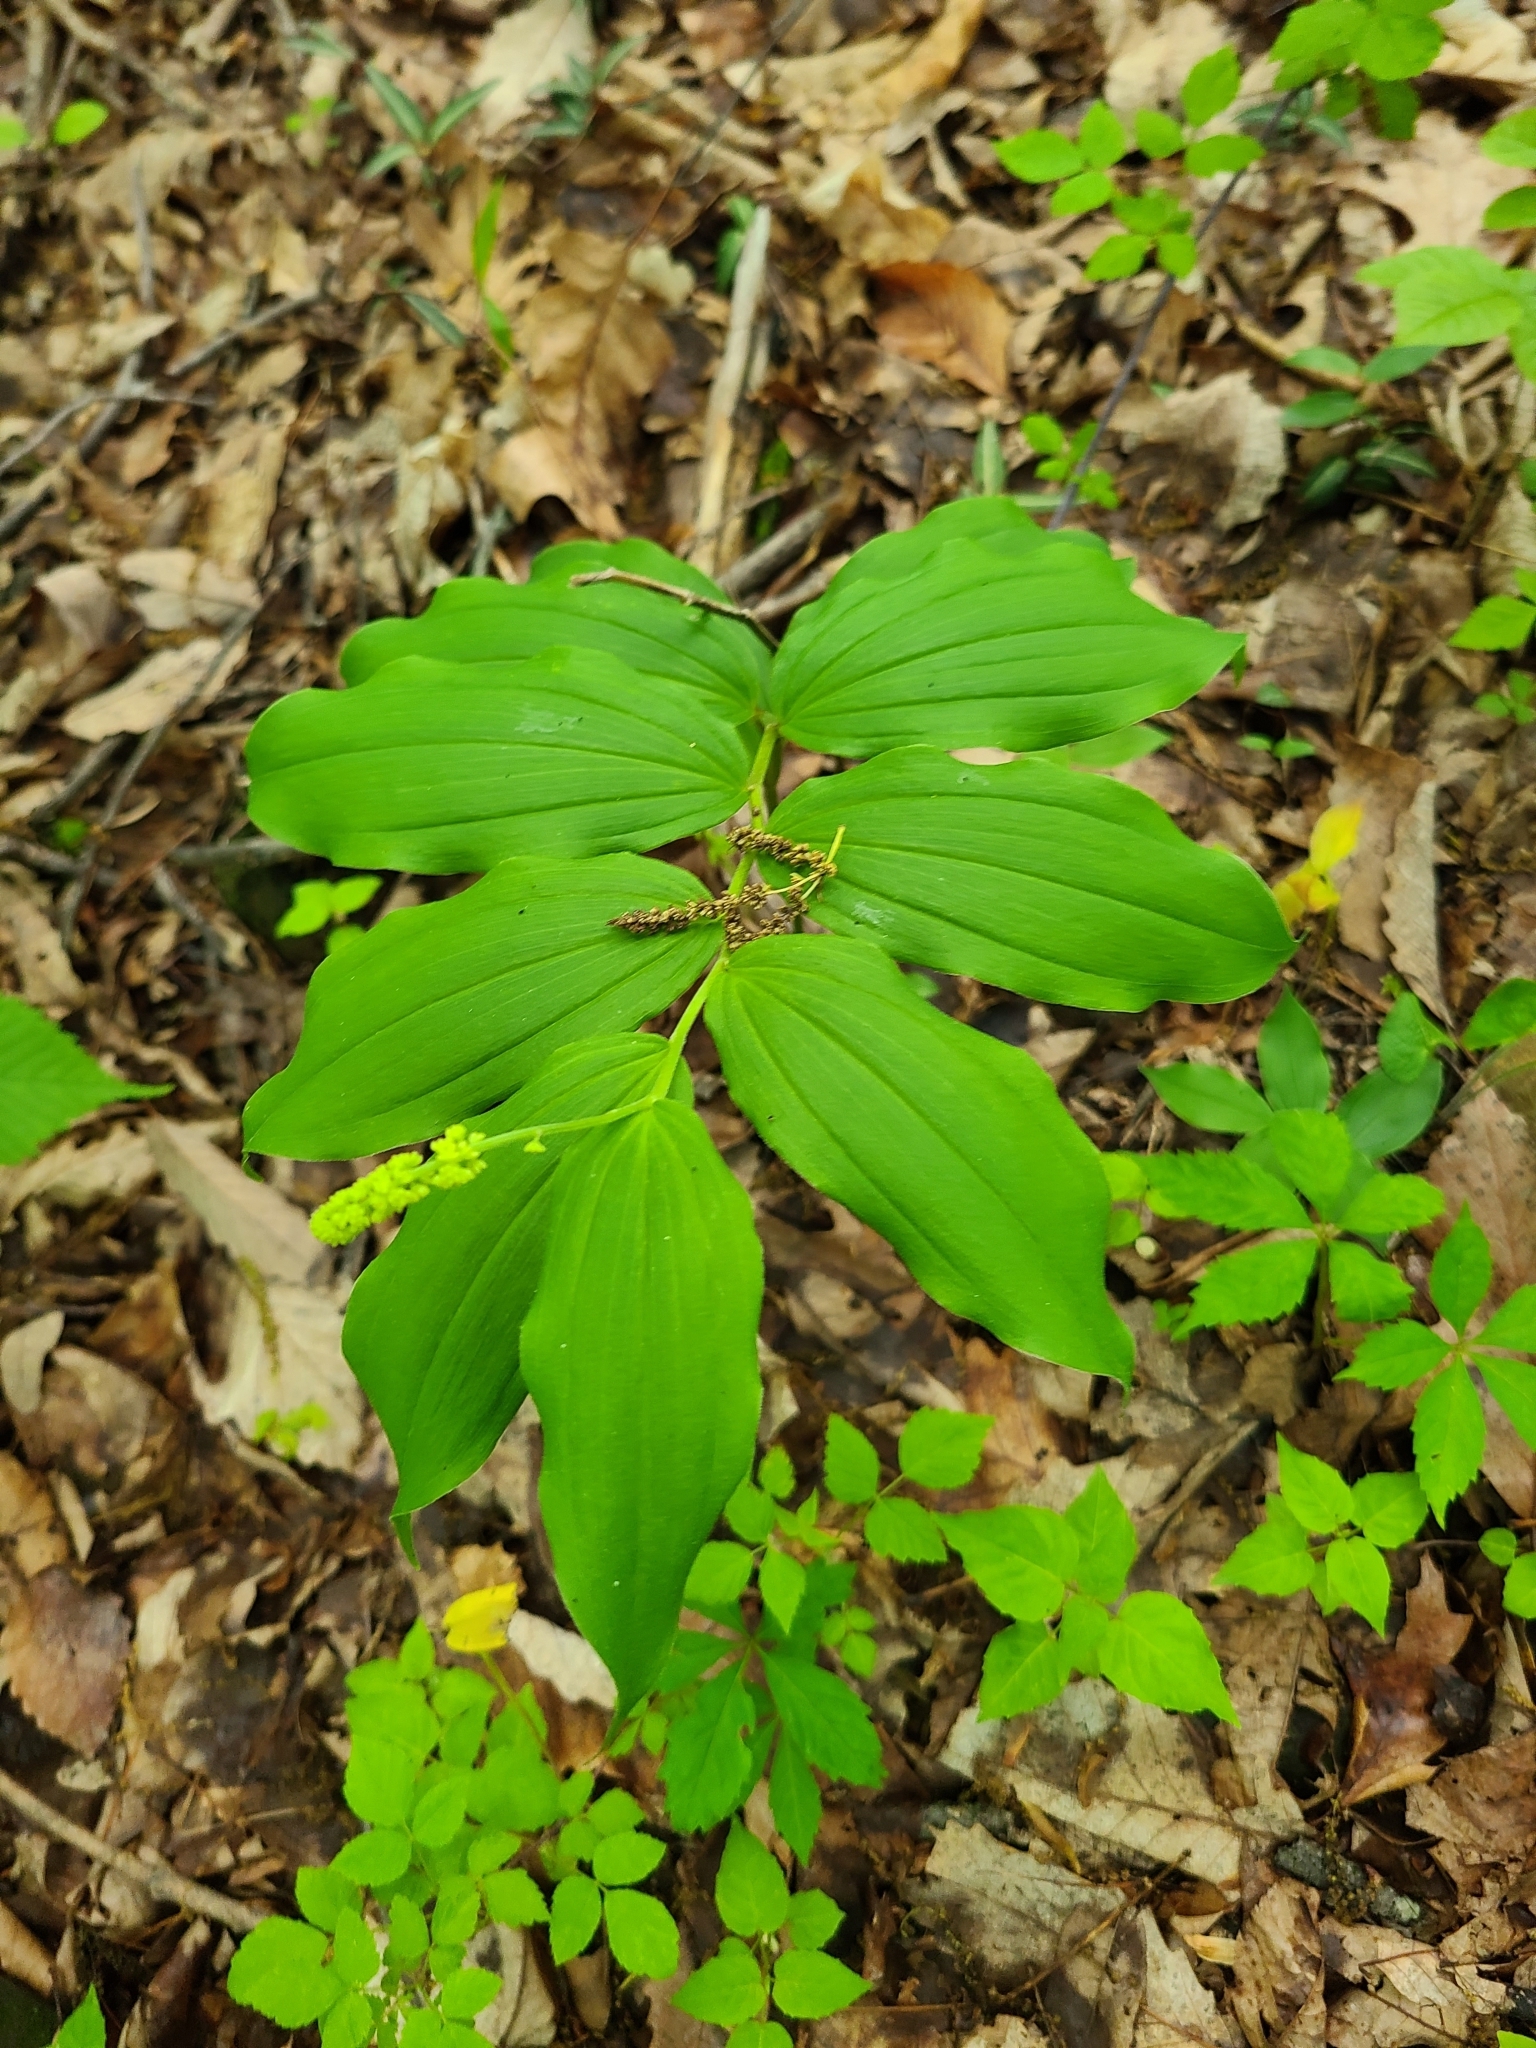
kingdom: Plantae
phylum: Tracheophyta
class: Liliopsida
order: Asparagales
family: Asparagaceae
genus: Maianthemum
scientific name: Maianthemum racemosum
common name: False spikenard
